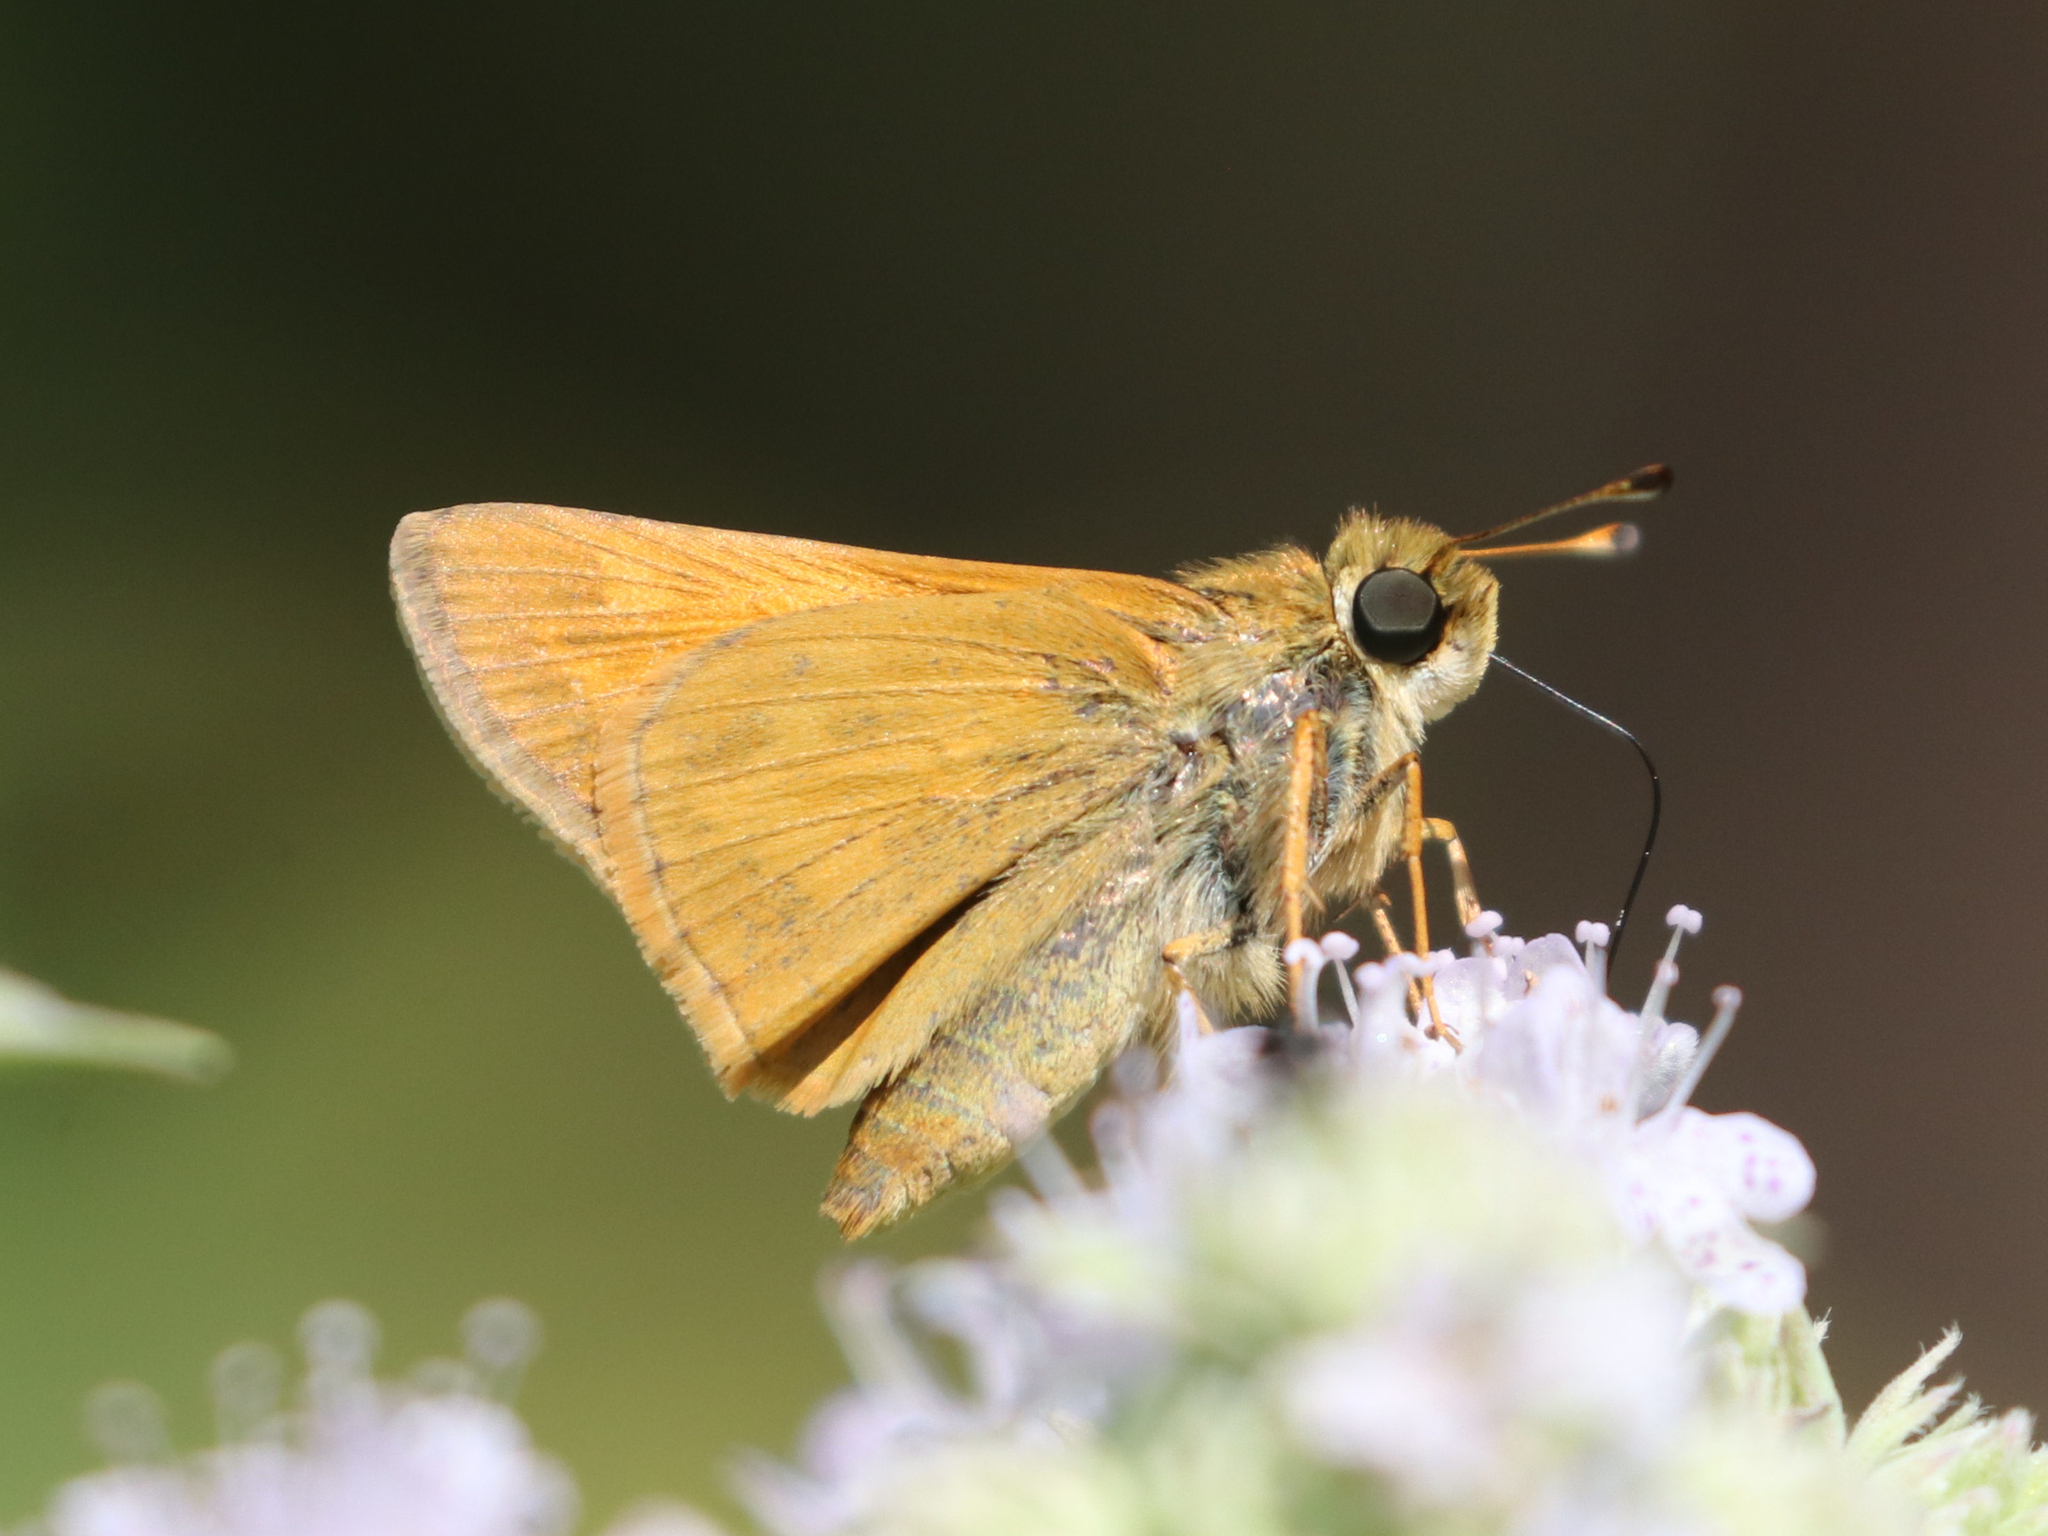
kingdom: Animalia
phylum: Arthropoda
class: Insecta
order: Lepidoptera
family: Hesperiidae
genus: Atalopedes
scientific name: Atalopedes
